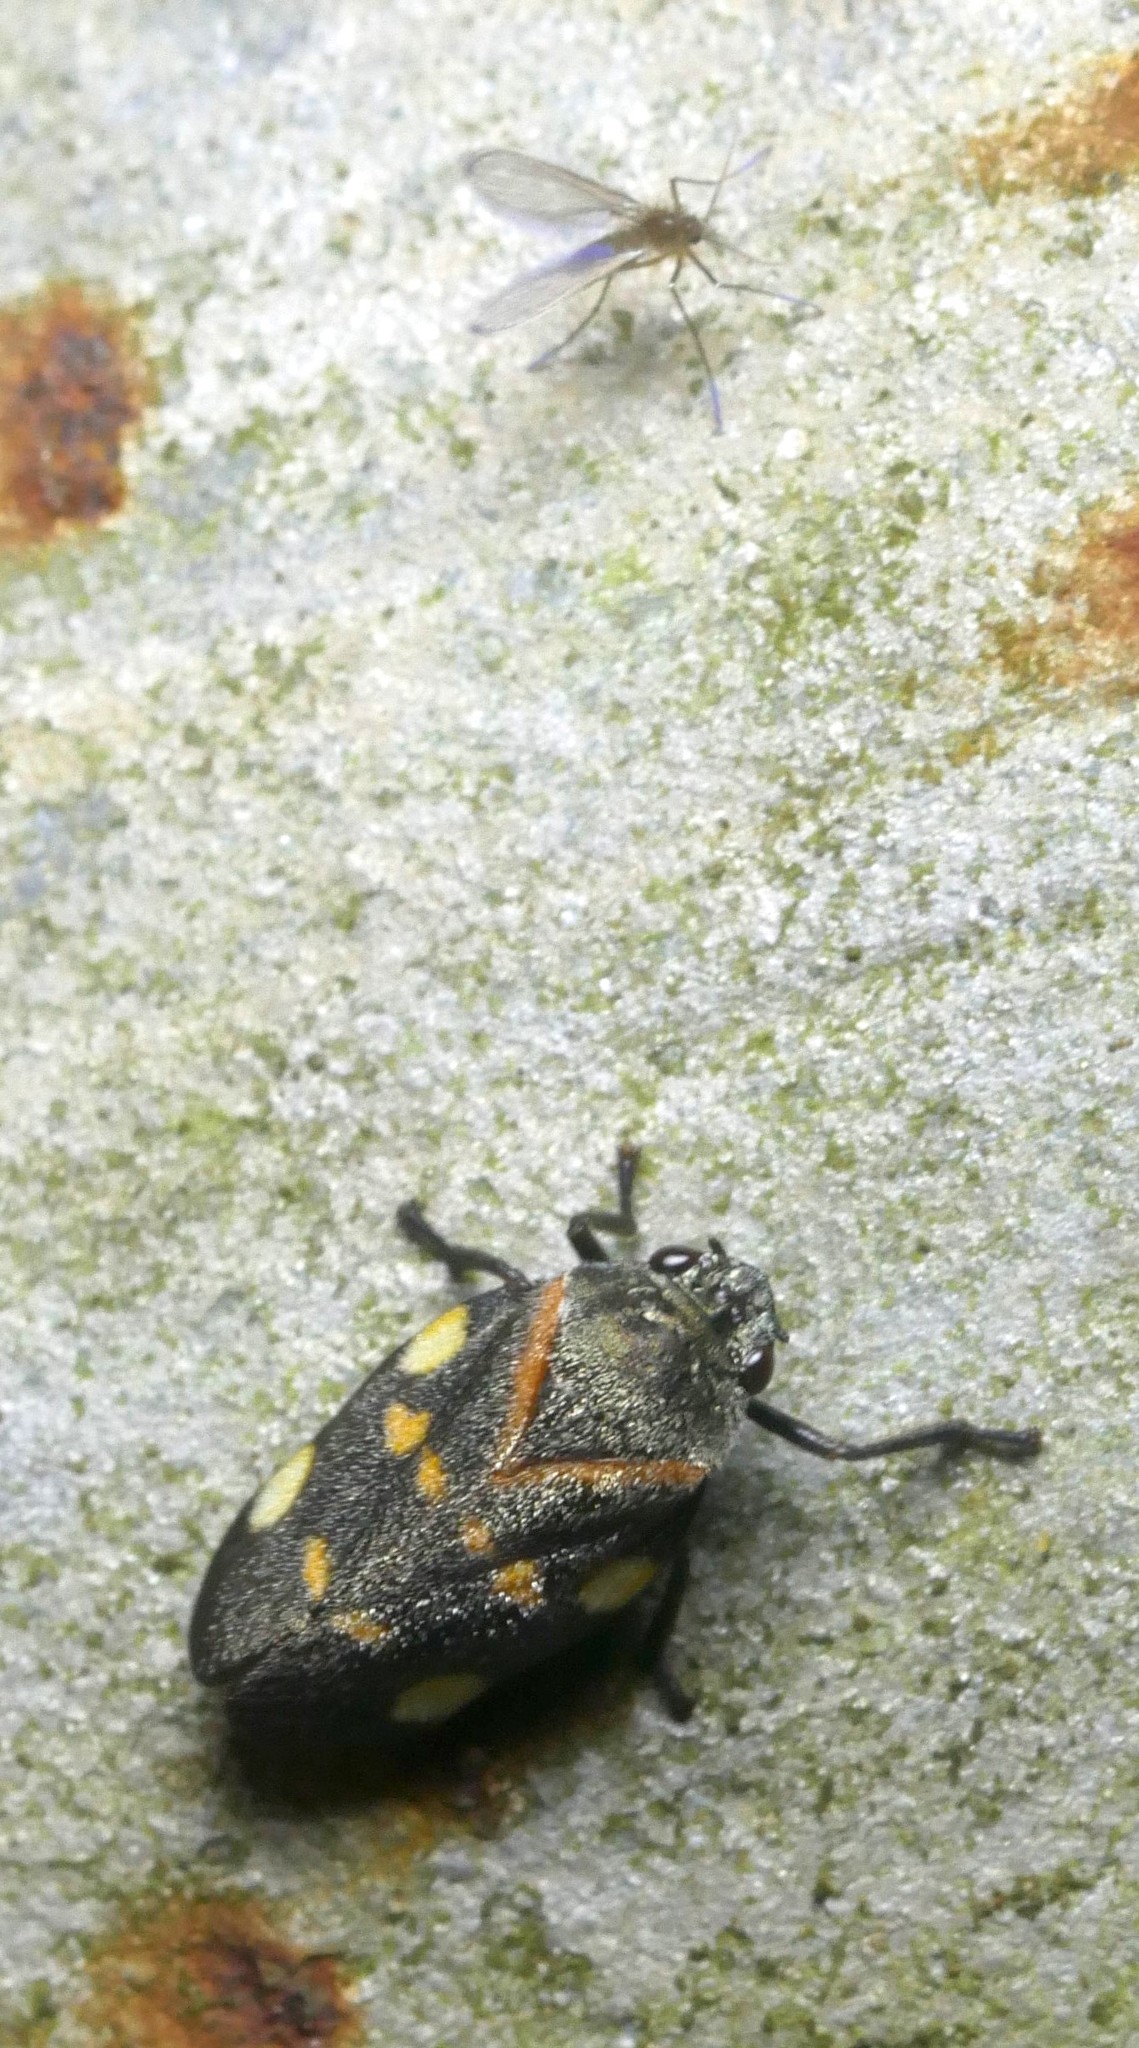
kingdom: Animalia
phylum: Arthropoda
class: Insecta
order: Hemiptera
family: Cercopidae
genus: Aeneolamia
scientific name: Aeneolamia lepidior
